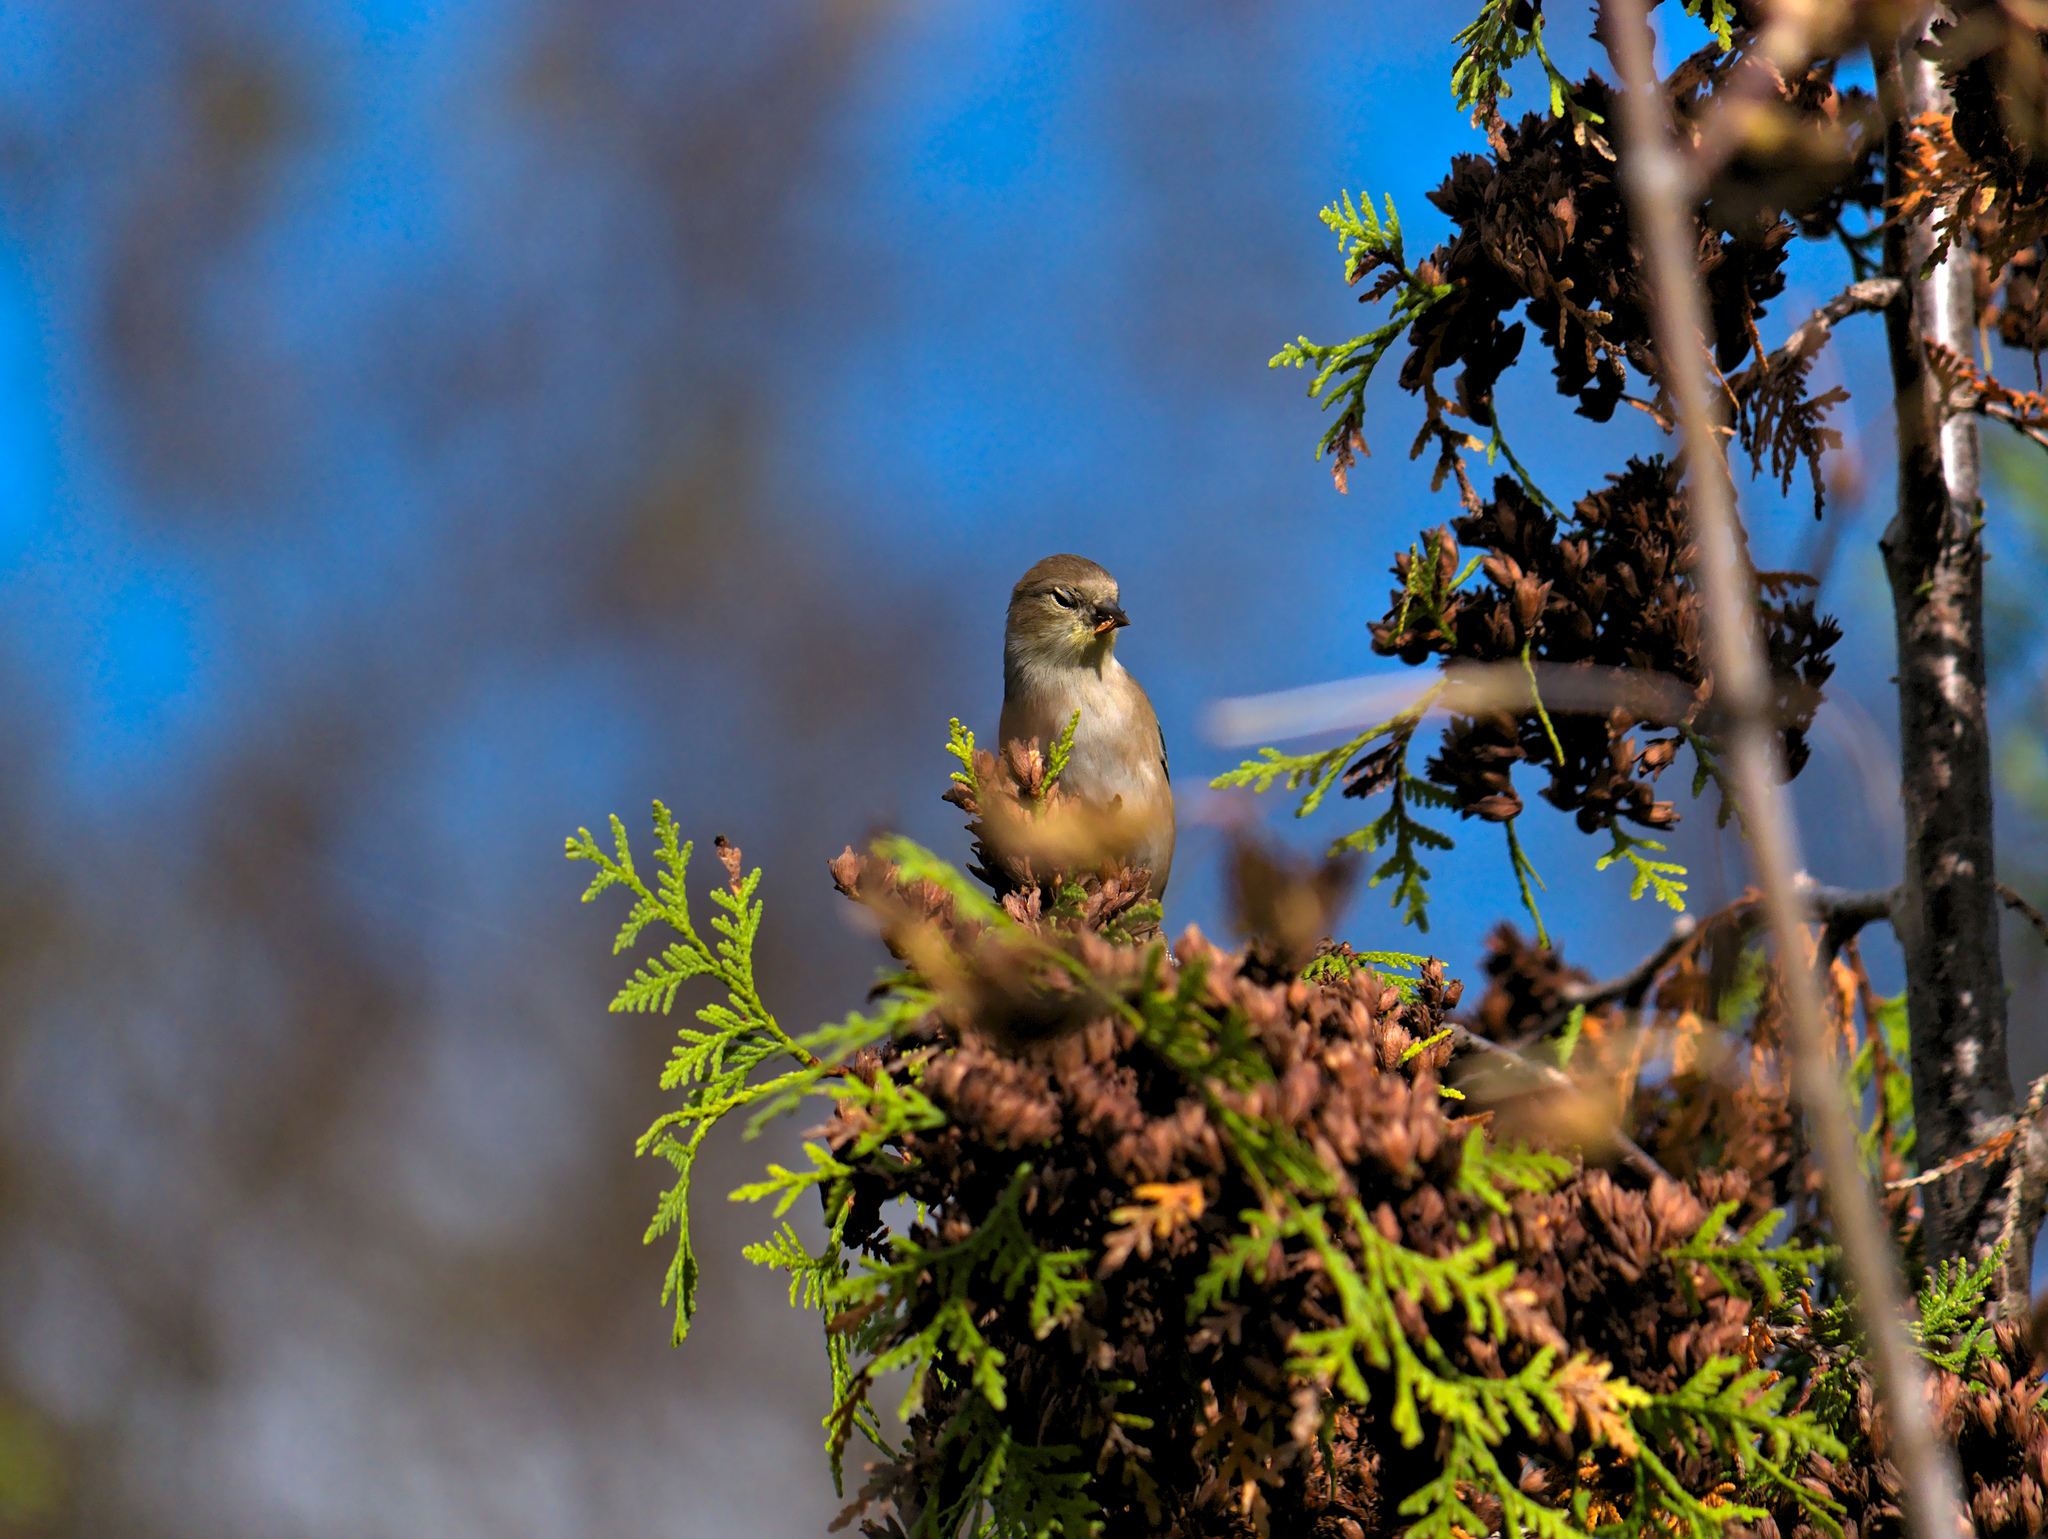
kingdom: Animalia
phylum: Chordata
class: Aves
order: Passeriformes
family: Fringillidae
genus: Spinus
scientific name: Spinus tristis
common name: American goldfinch
